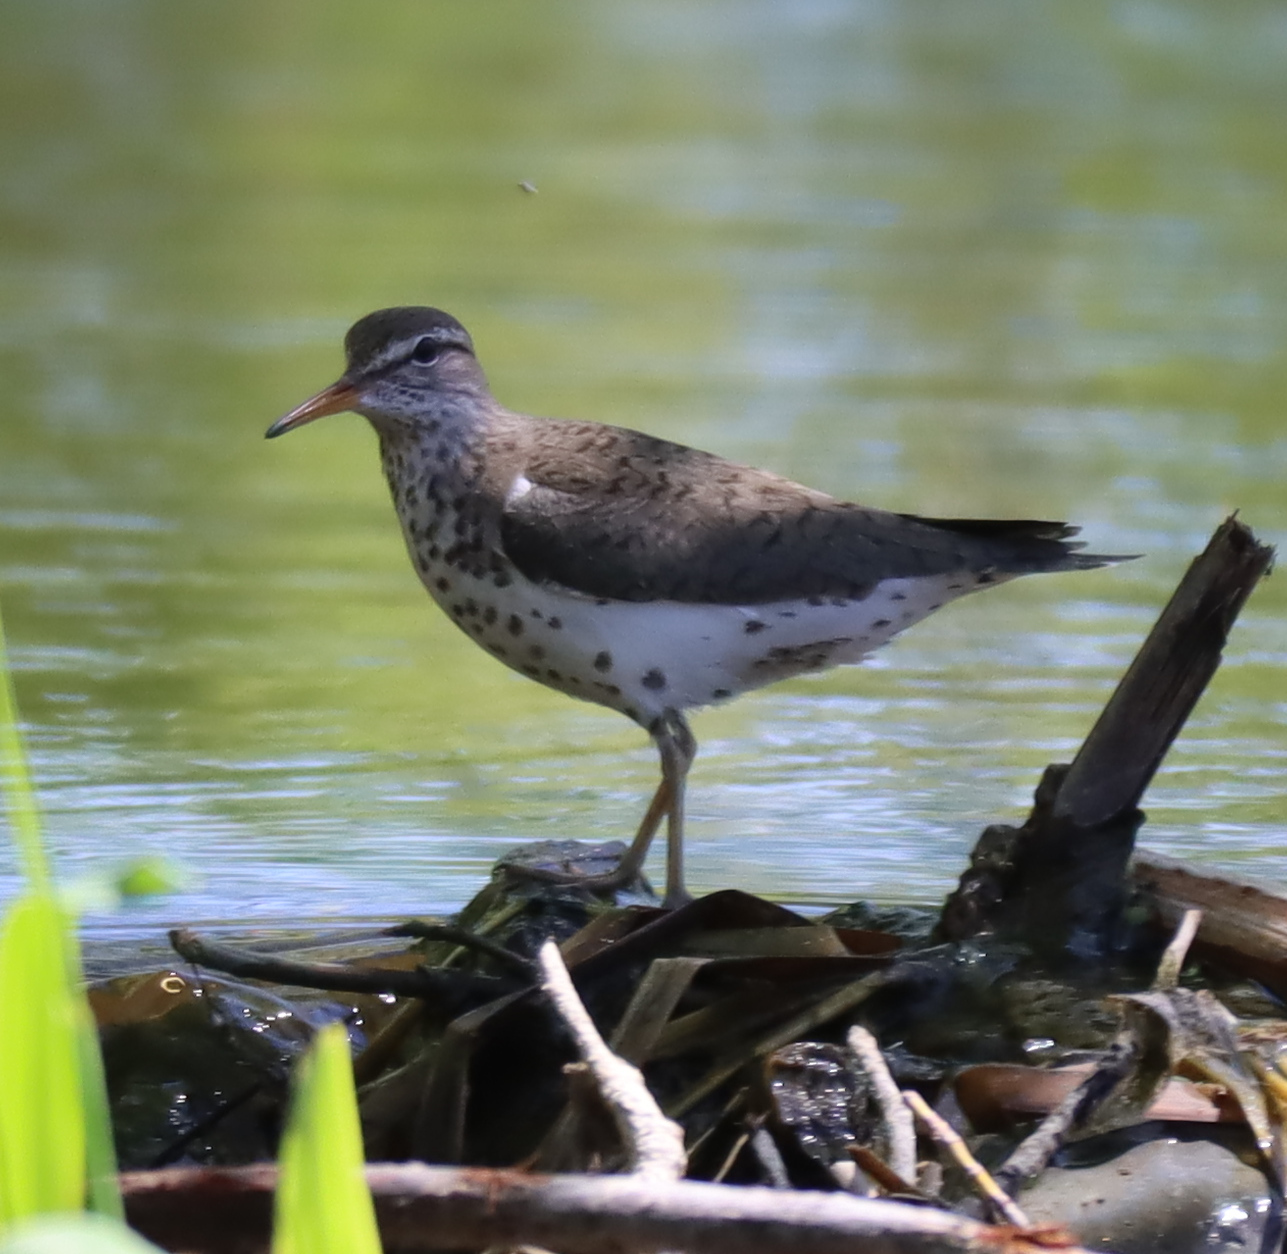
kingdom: Animalia
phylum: Chordata
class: Aves
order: Charadriiformes
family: Scolopacidae
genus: Actitis
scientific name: Actitis macularius
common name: Spotted sandpiper
